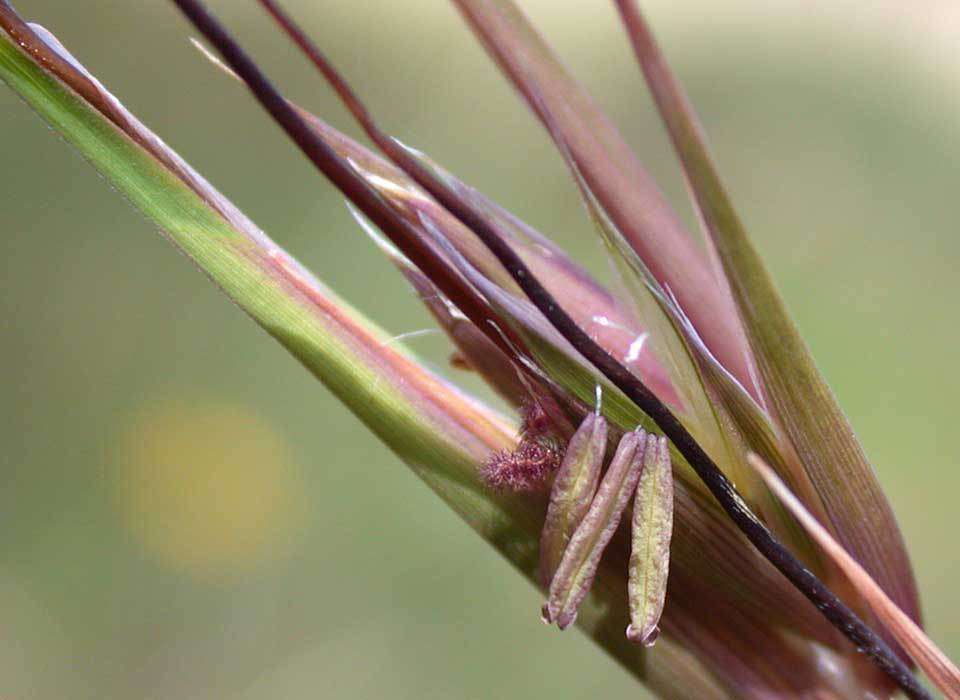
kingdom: Plantae
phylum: Tracheophyta
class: Liliopsida
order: Poales
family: Poaceae
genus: Themeda
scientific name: Themeda triandra
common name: Kangaroo grass
